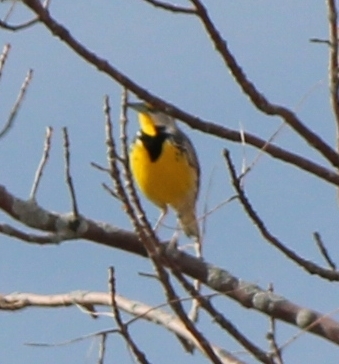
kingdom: Animalia
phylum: Chordata
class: Aves
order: Passeriformes
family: Icteridae
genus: Sturnella
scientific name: Sturnella magna
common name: Eastern meadowlark
